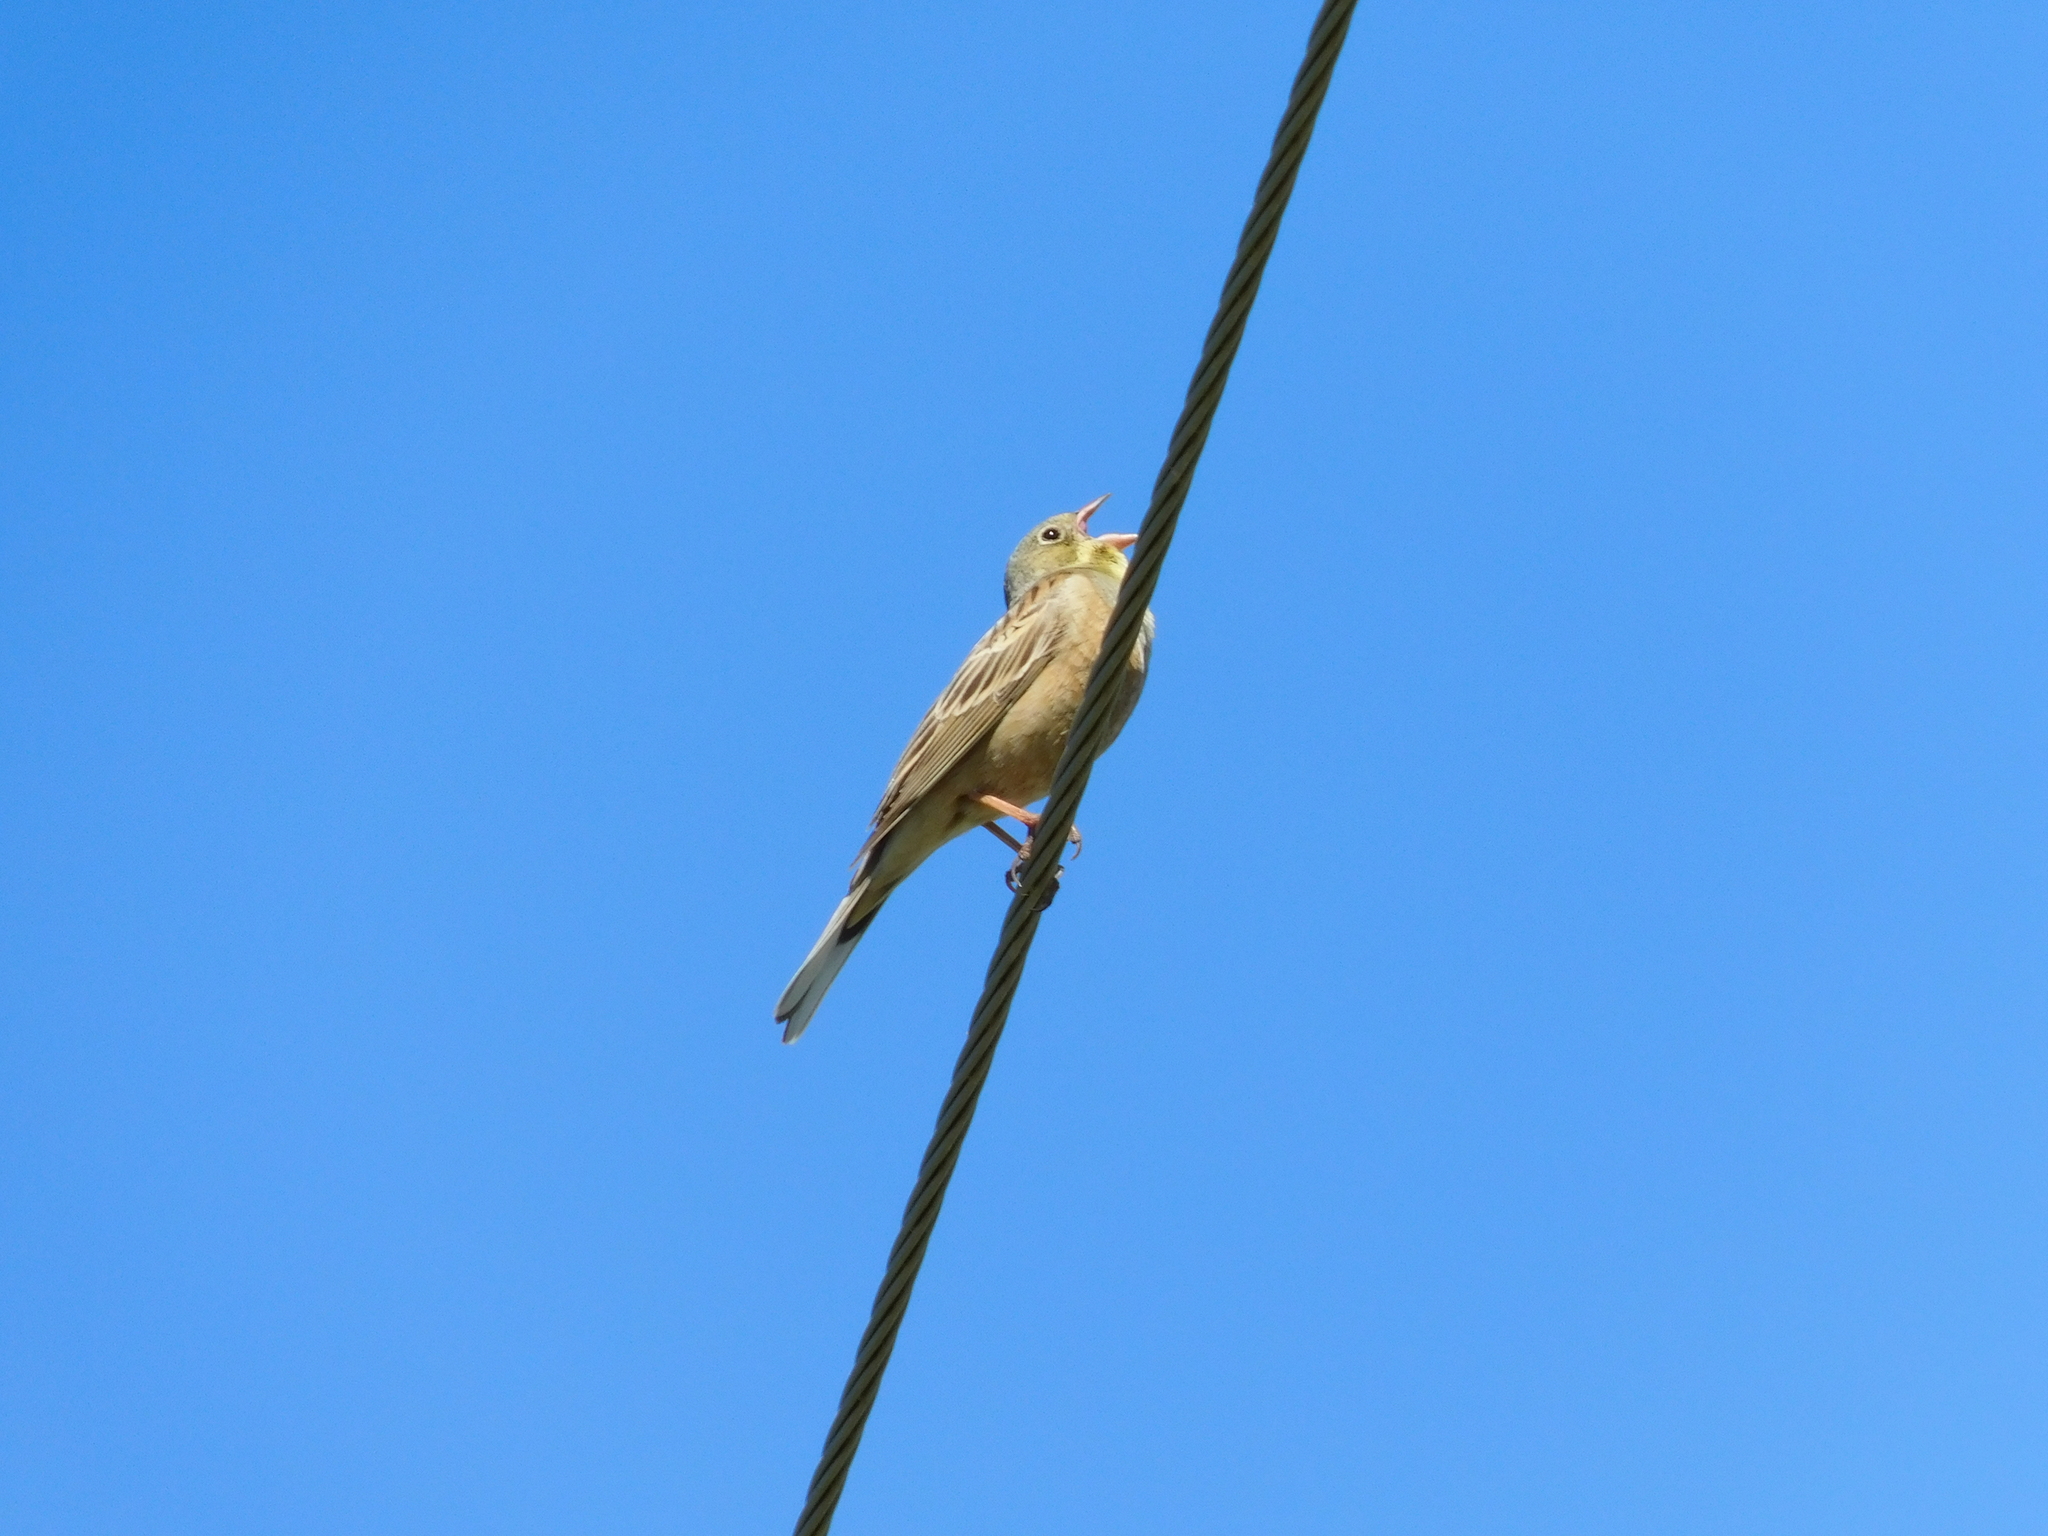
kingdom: Animalia
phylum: Chordata
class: Aves
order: Passeriformes
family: Emberizidae
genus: Emberiza
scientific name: Emberiza hortulana
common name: Ortolan bunting
